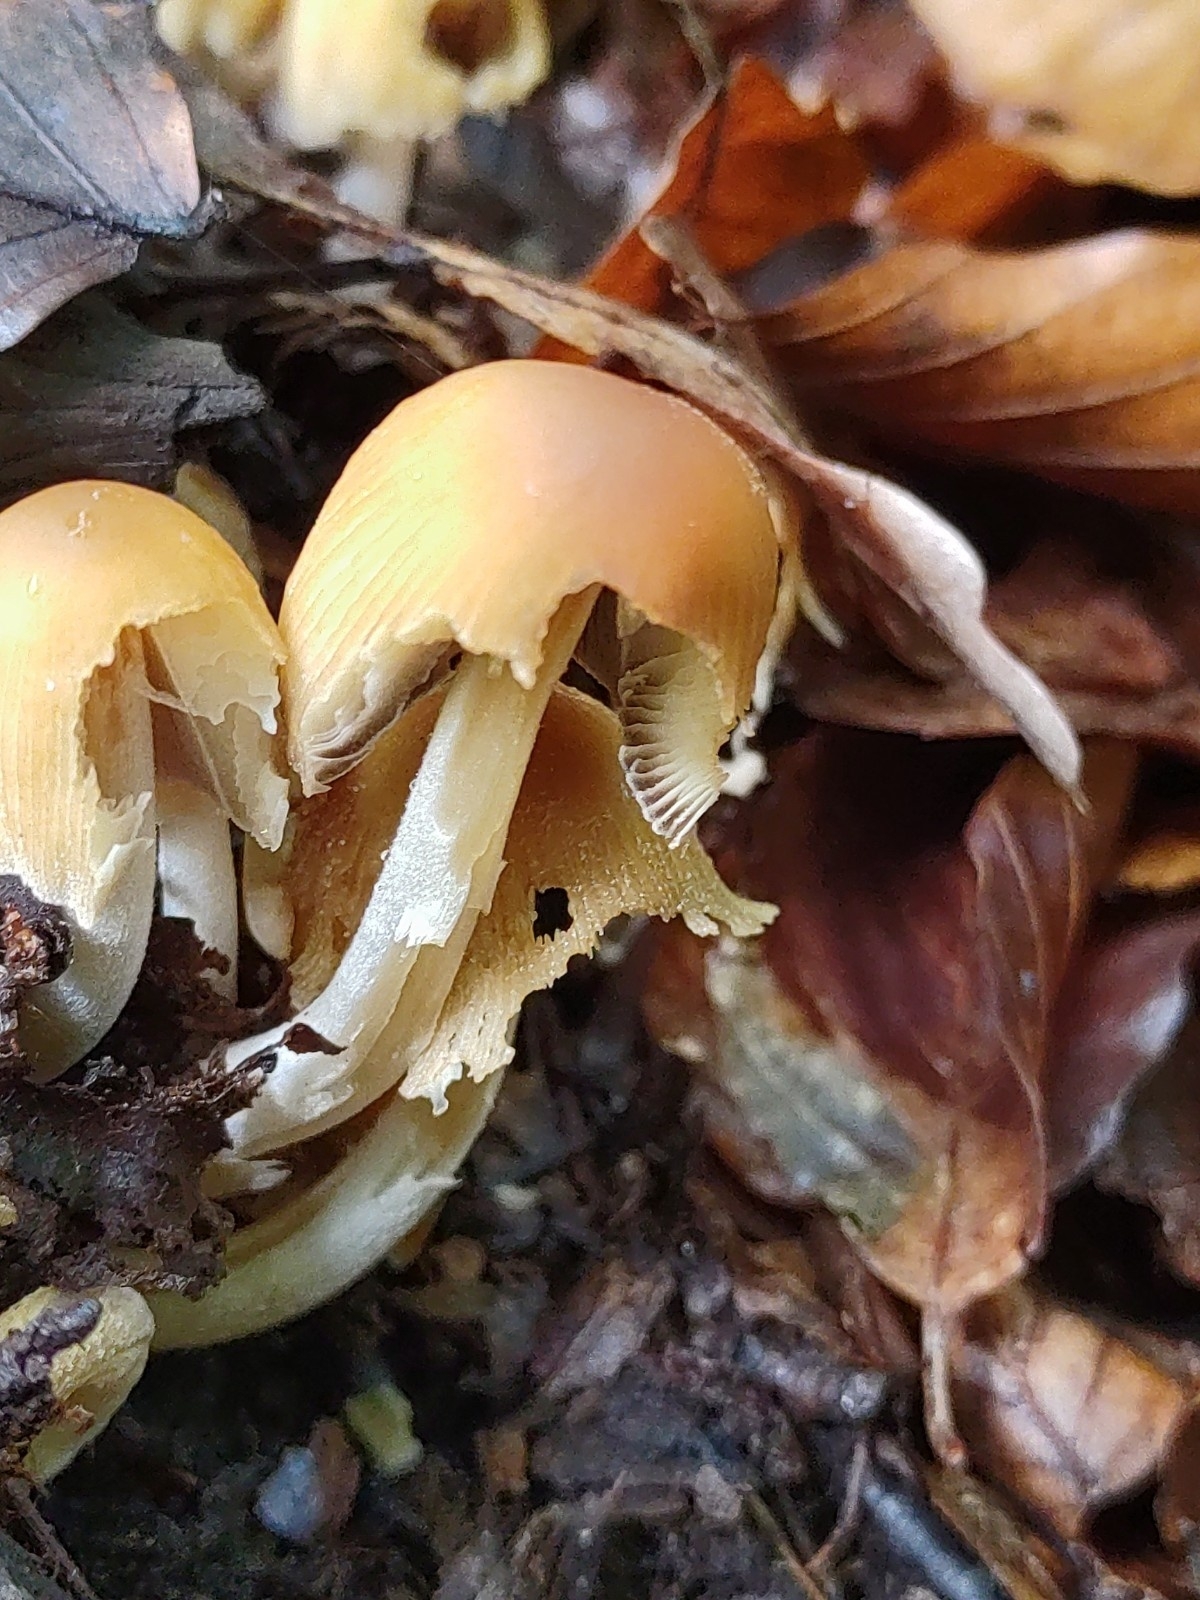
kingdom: Fungi
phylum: Basidiomycota
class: Agaricomycetes
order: Agaricales
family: Psathyrellaceae
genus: Coprinellus
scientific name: Coprinellus micaceus
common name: Glistening ink-cap
